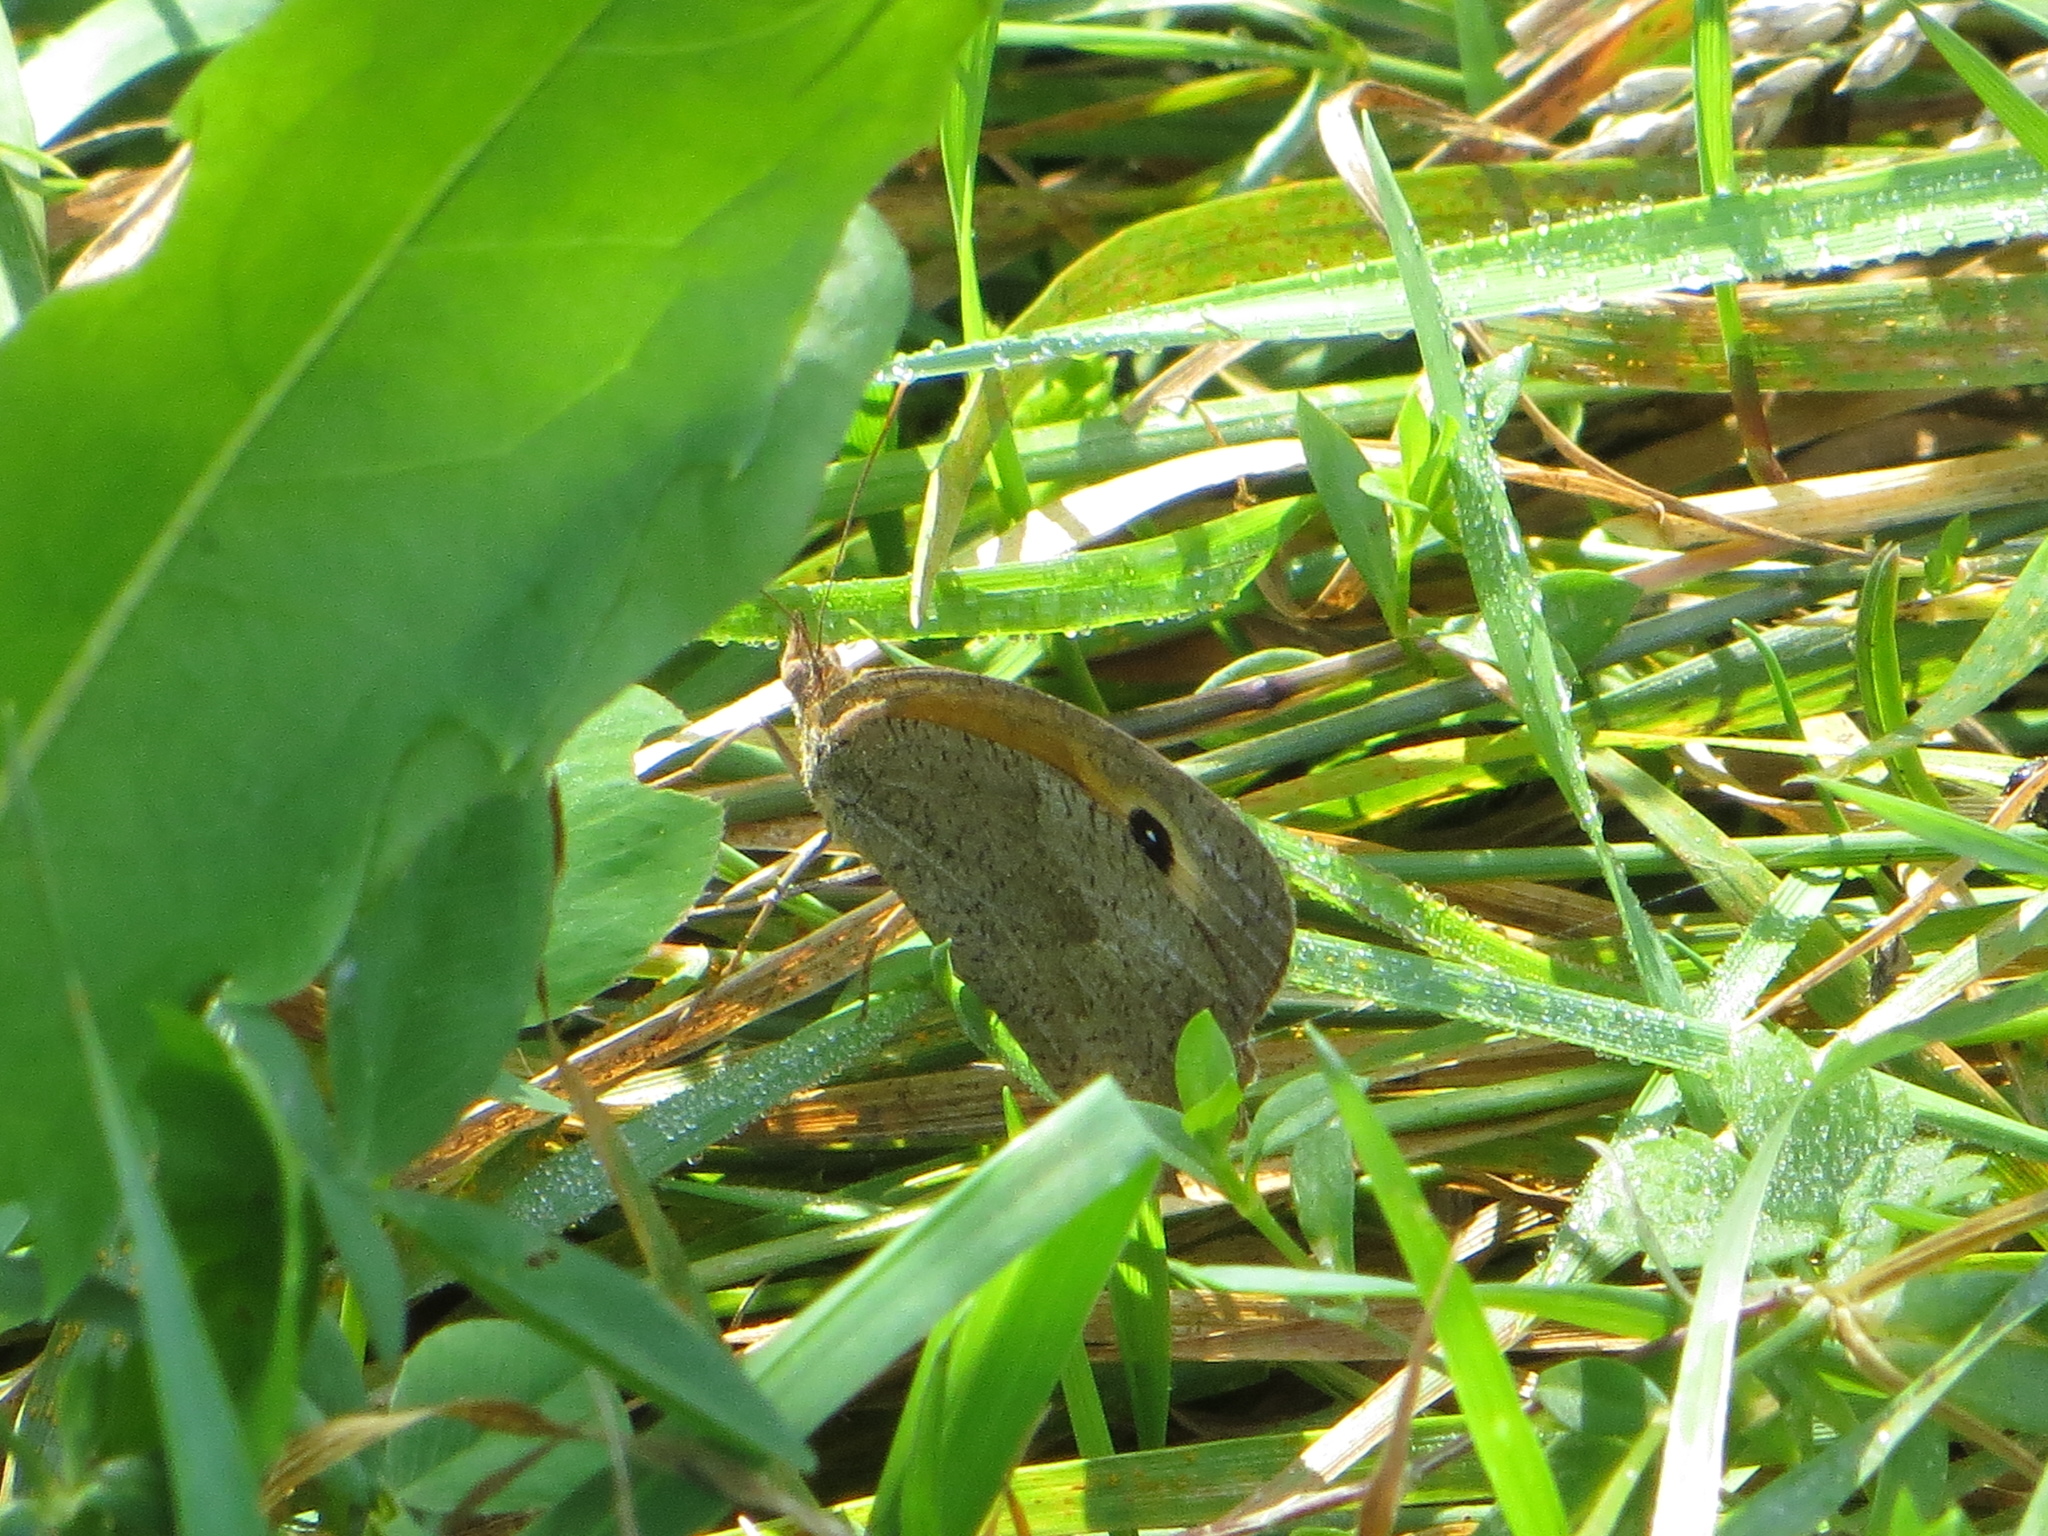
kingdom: Animalia
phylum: Arthropoda
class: Insecta
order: Lepidoptera
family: Nymphalidae
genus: Maniola
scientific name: Maniola jurtina
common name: Meadow brown
